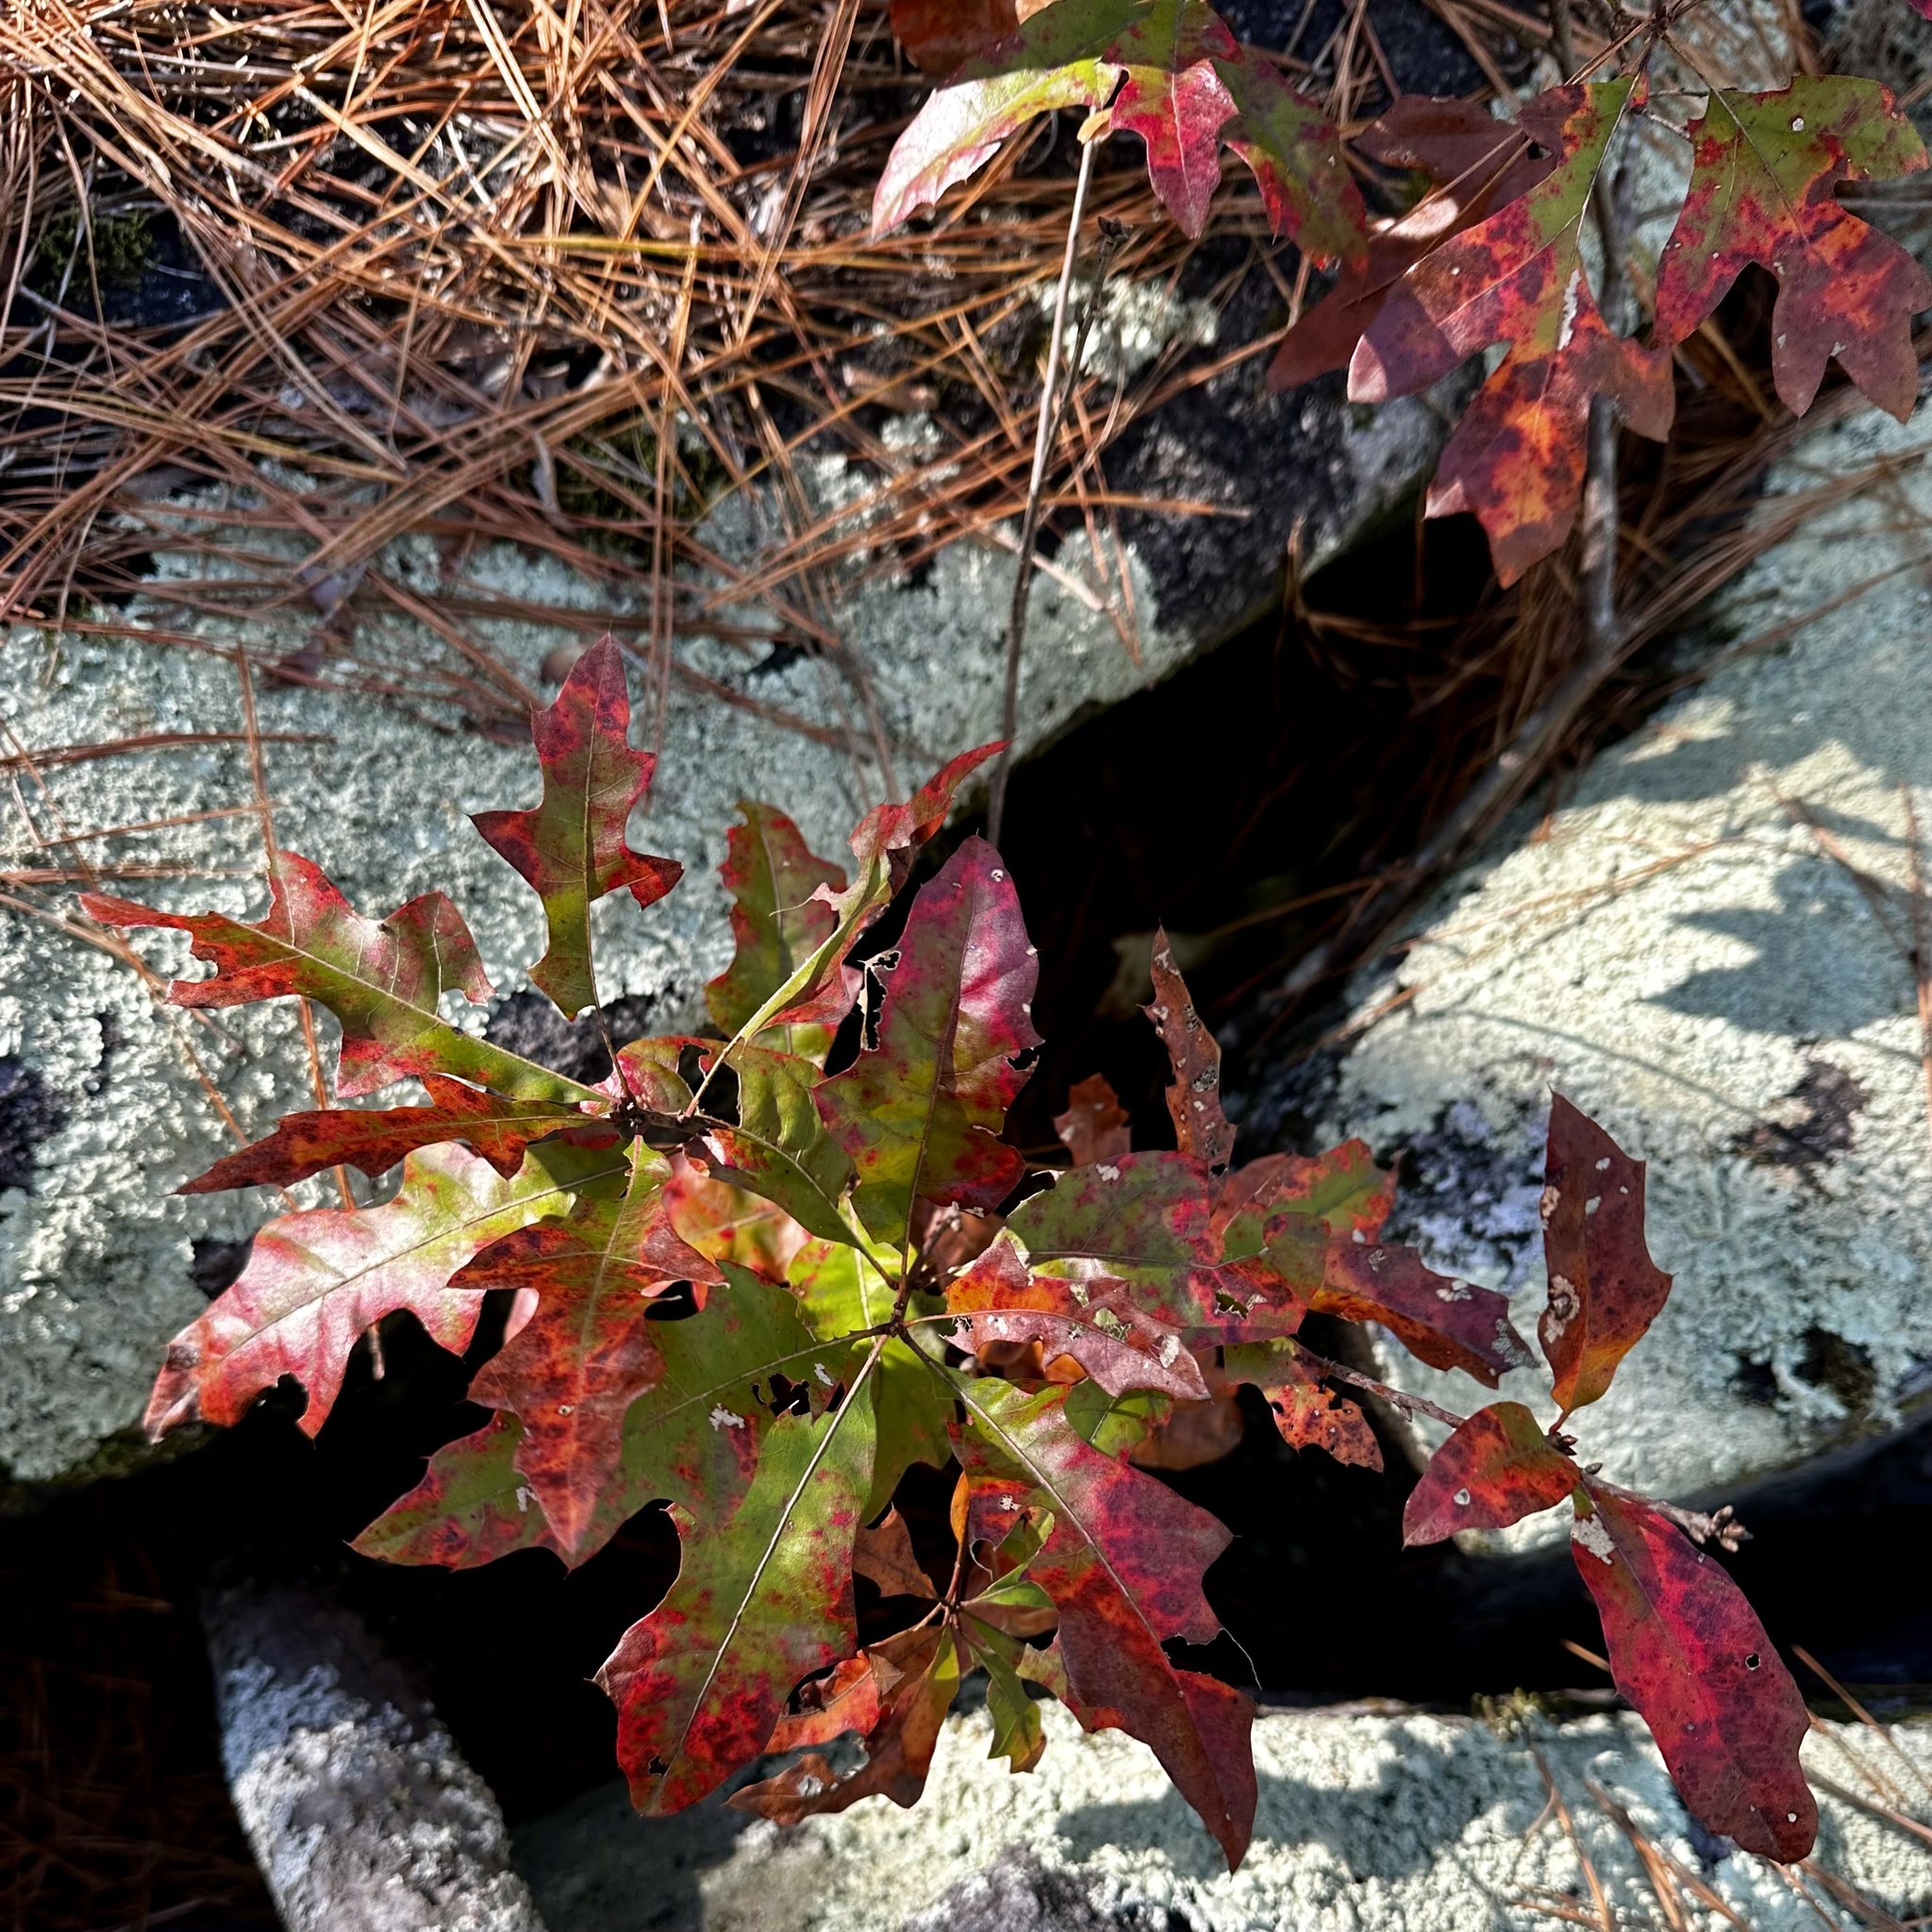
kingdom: Plantae
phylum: Tracheophyta
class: Magnoliopsida
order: Fagales
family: Fagaceae
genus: Quercus
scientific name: Quercus georgiana
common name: Georgia oak
